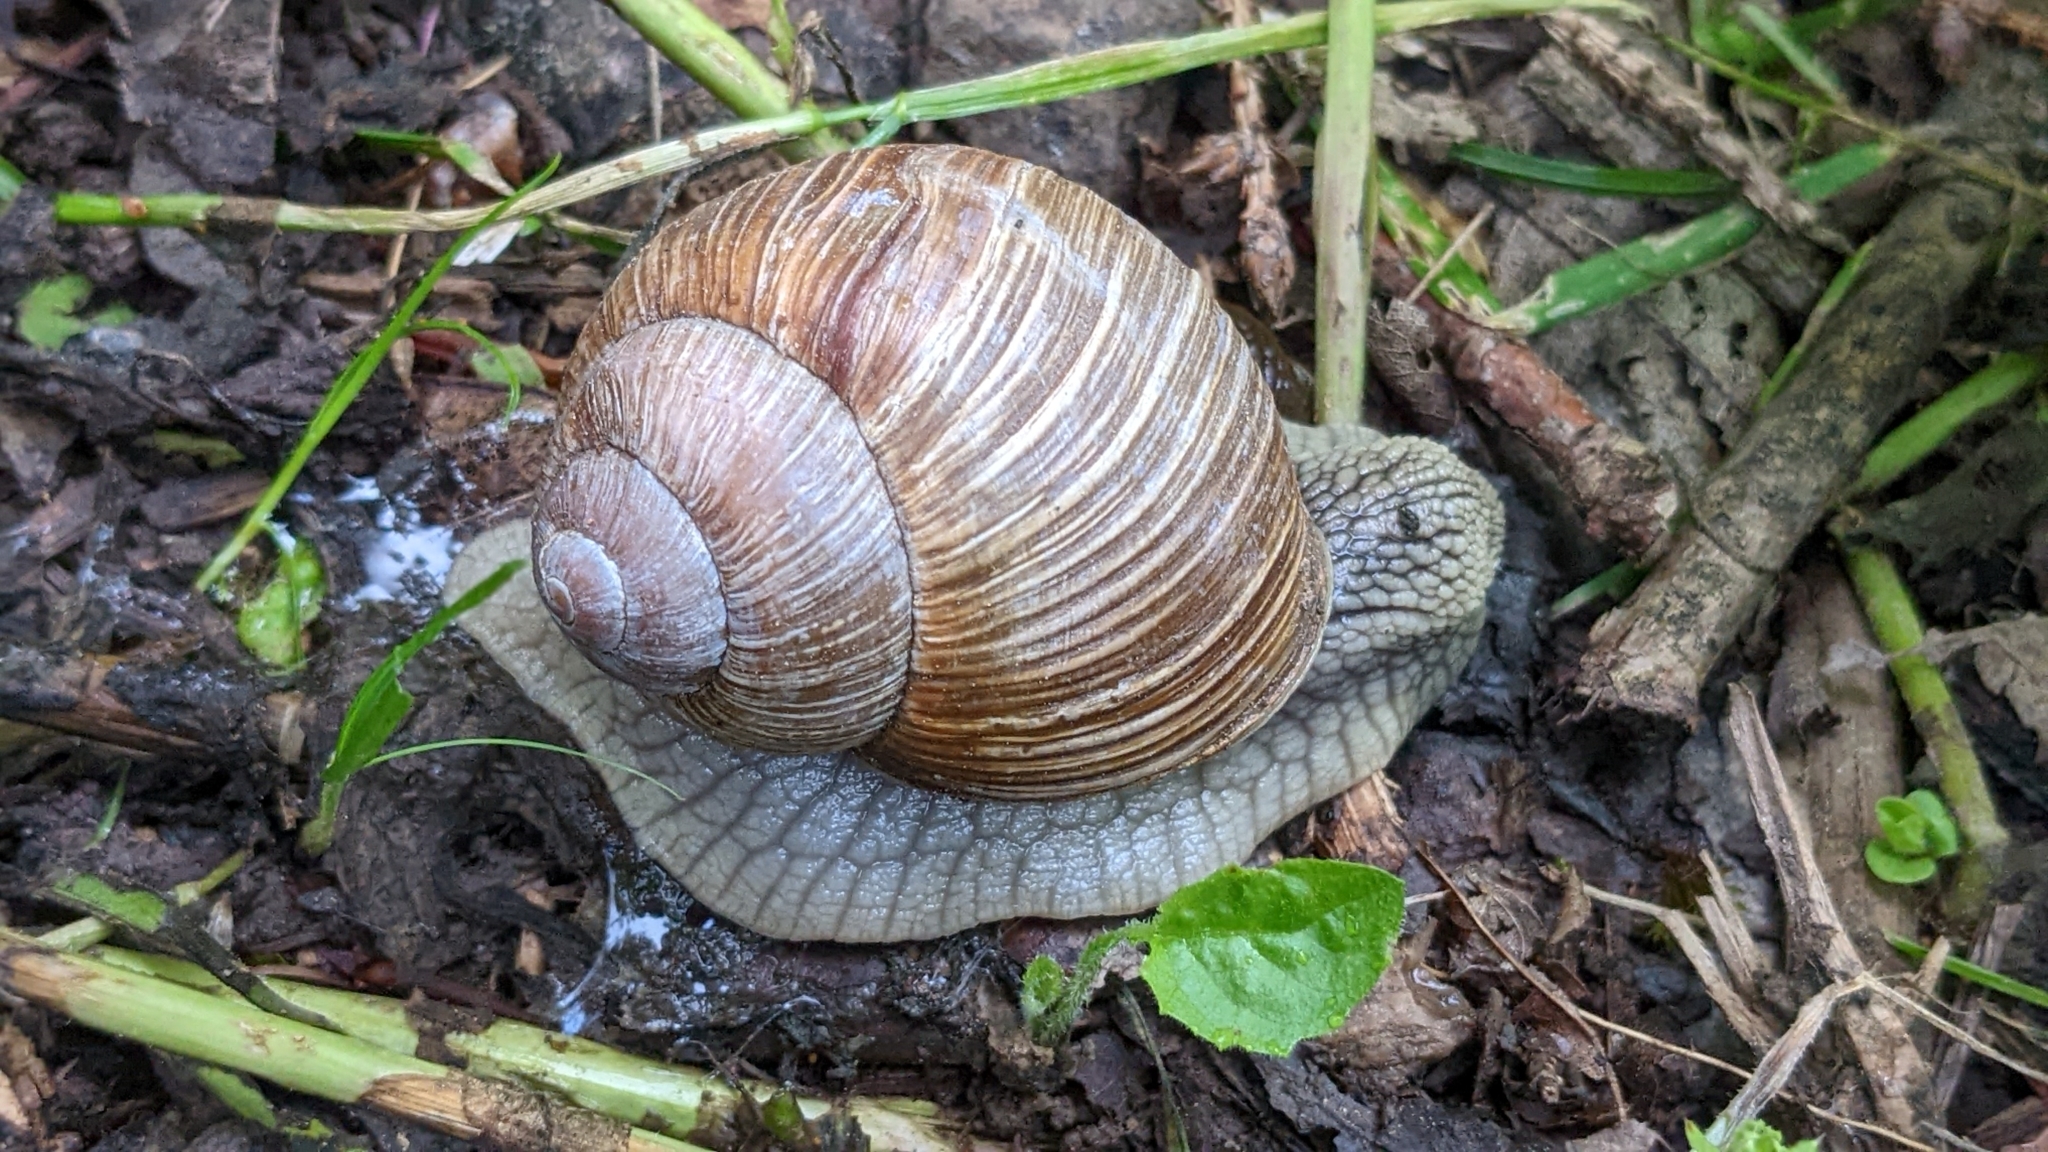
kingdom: Animalia
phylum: Mollusca
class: Gastropoda
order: Stylommatophora
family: Helicidae
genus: Helix
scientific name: Helix pomatia
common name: Roman snail
